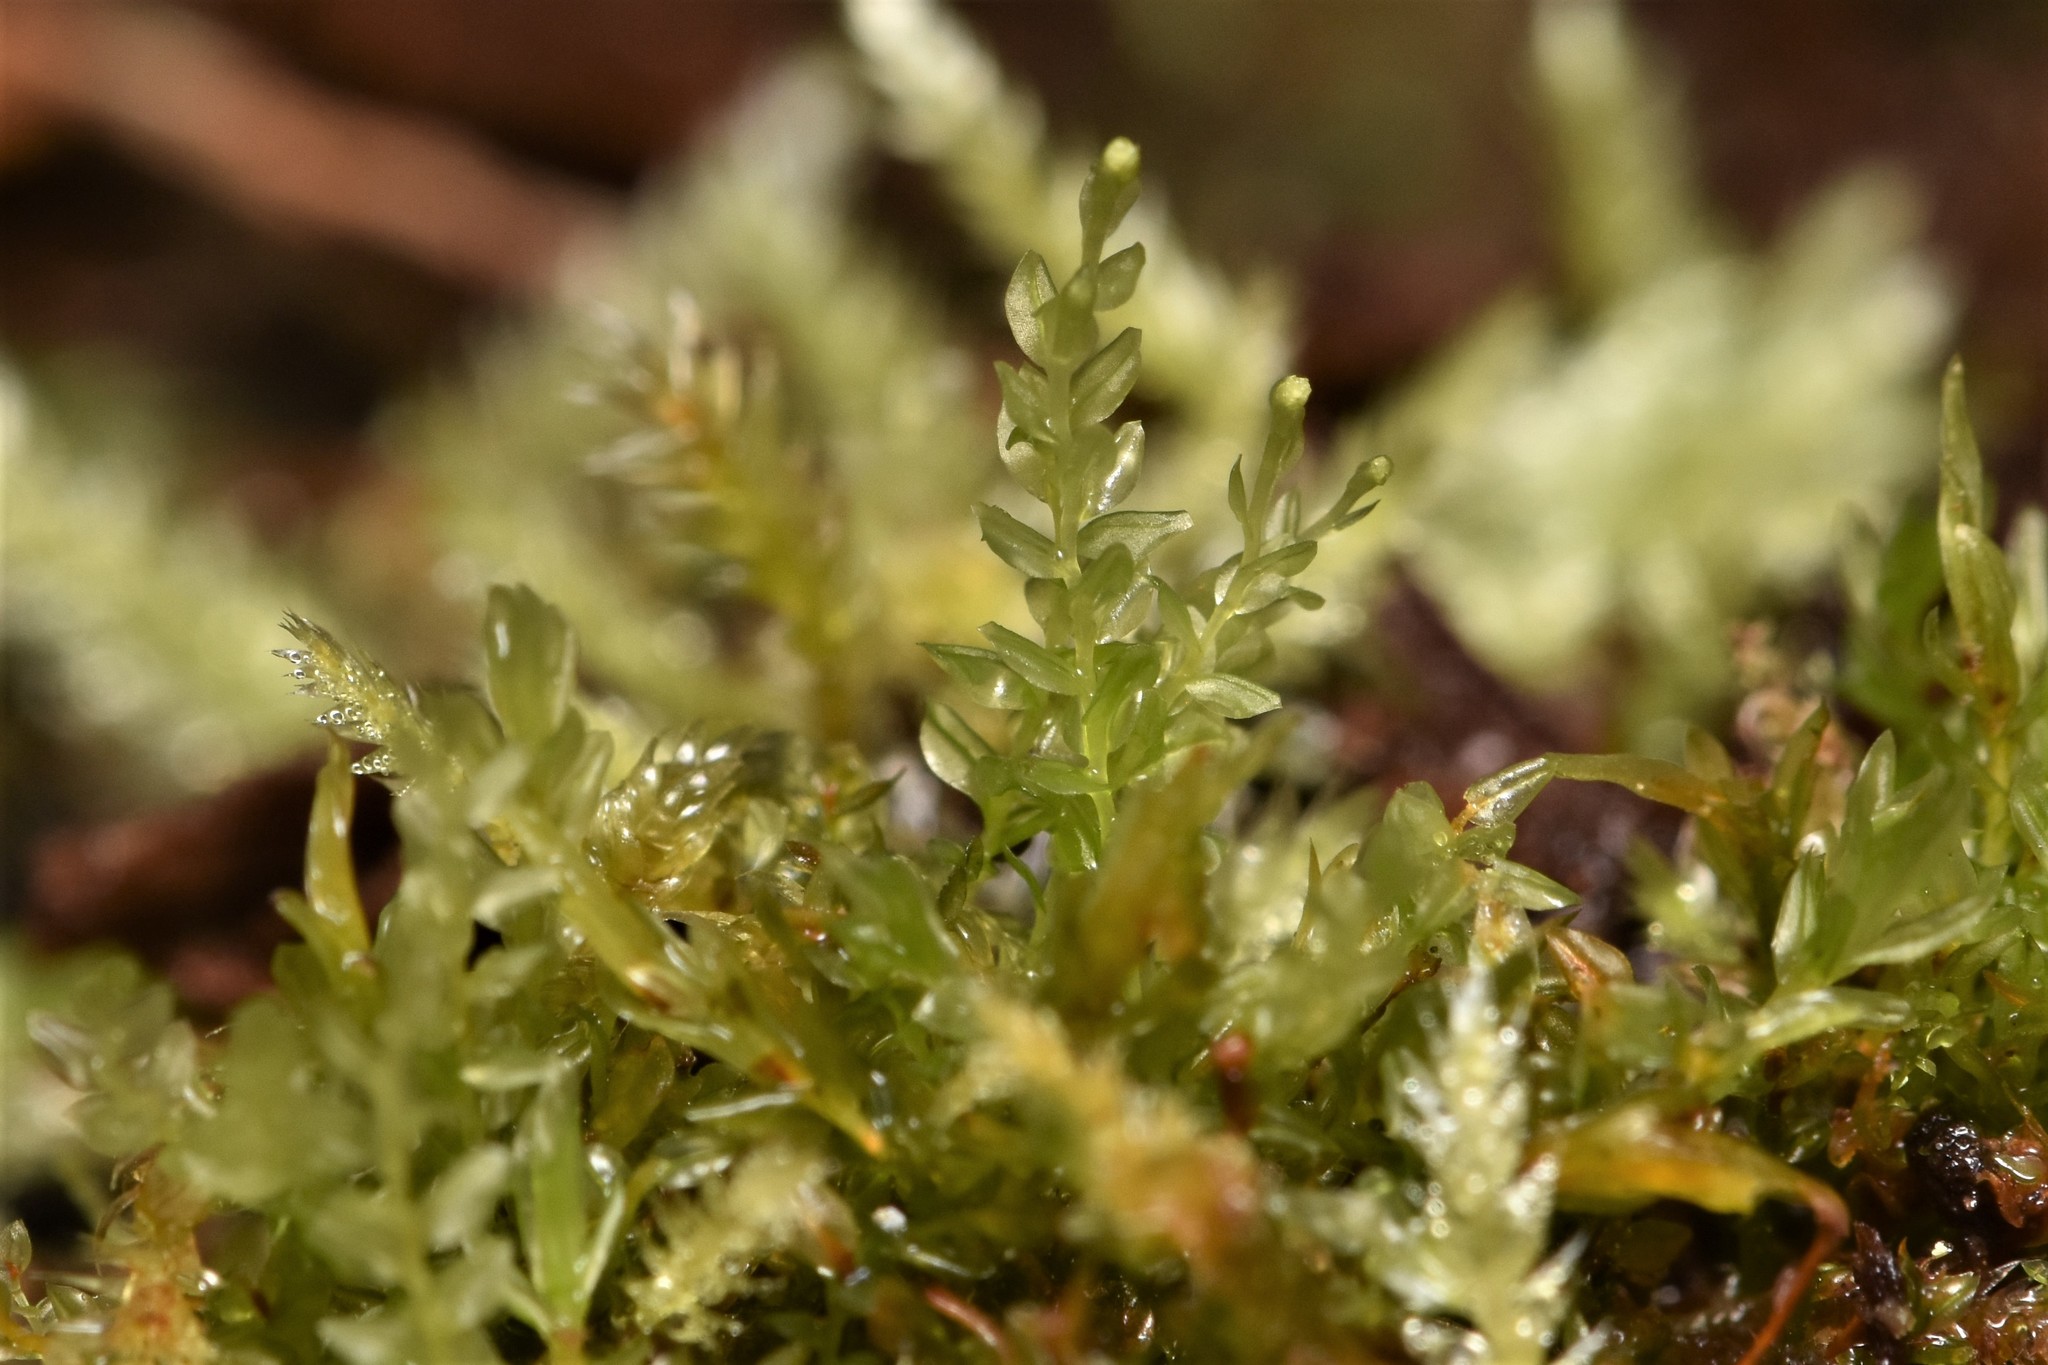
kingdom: Plantae
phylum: Bryophyta
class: Polytrichopsida
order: Tetraphidales
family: Tetraphidaceae
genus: Tetraphis
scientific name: Tetraphis pellucida
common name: Common four-toothed moss
